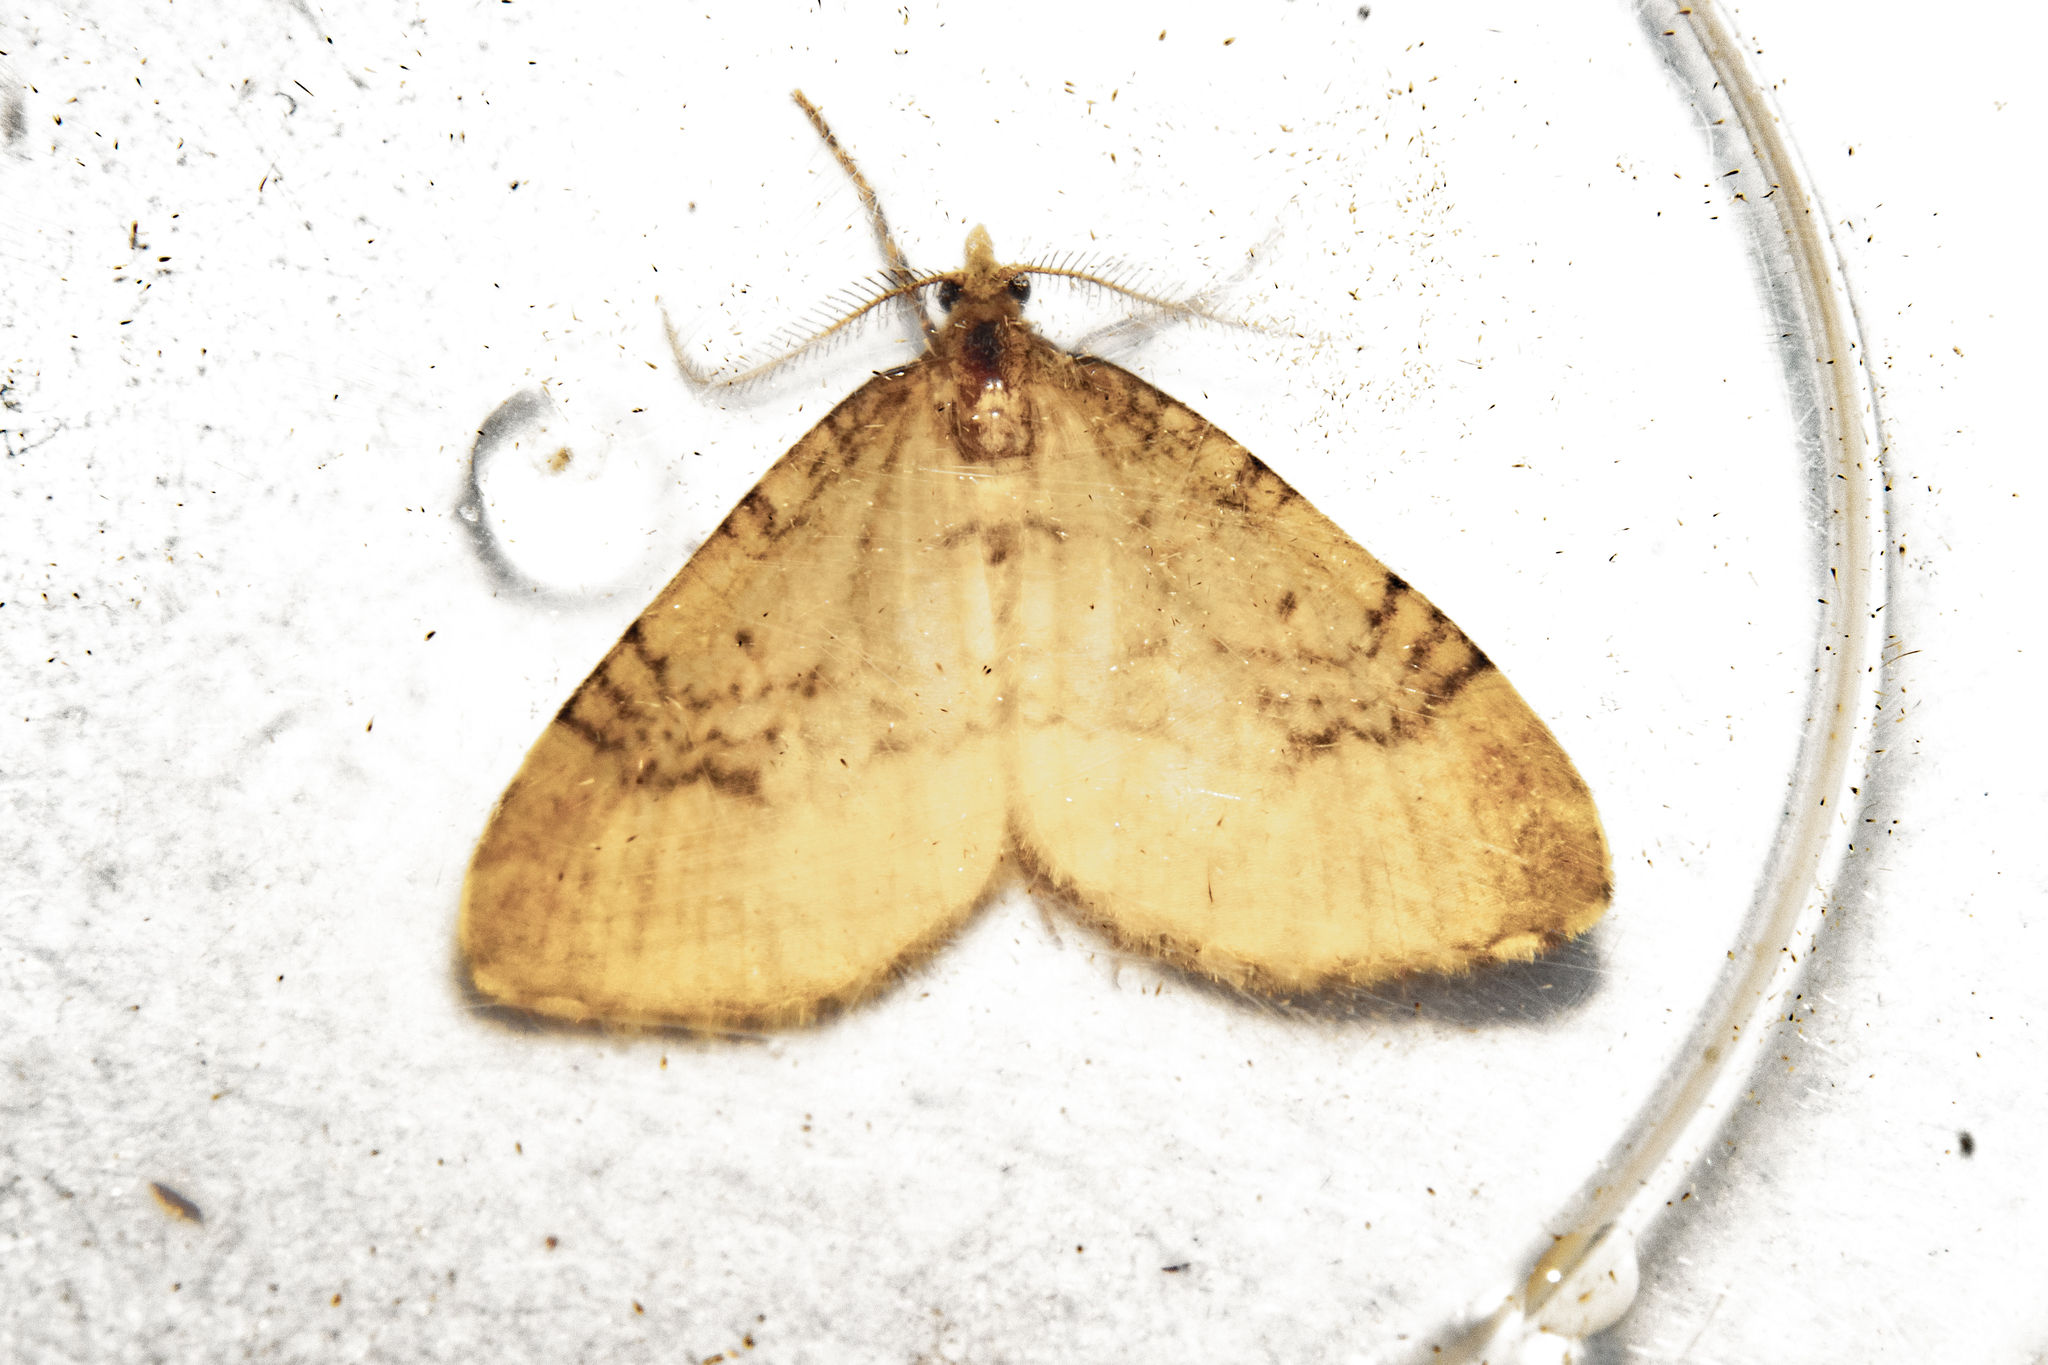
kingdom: Animalia
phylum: Arthropoda
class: Insecta
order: Lepidoptera
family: Geometridae
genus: Asaphodes
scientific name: Asaphodes aegrota
